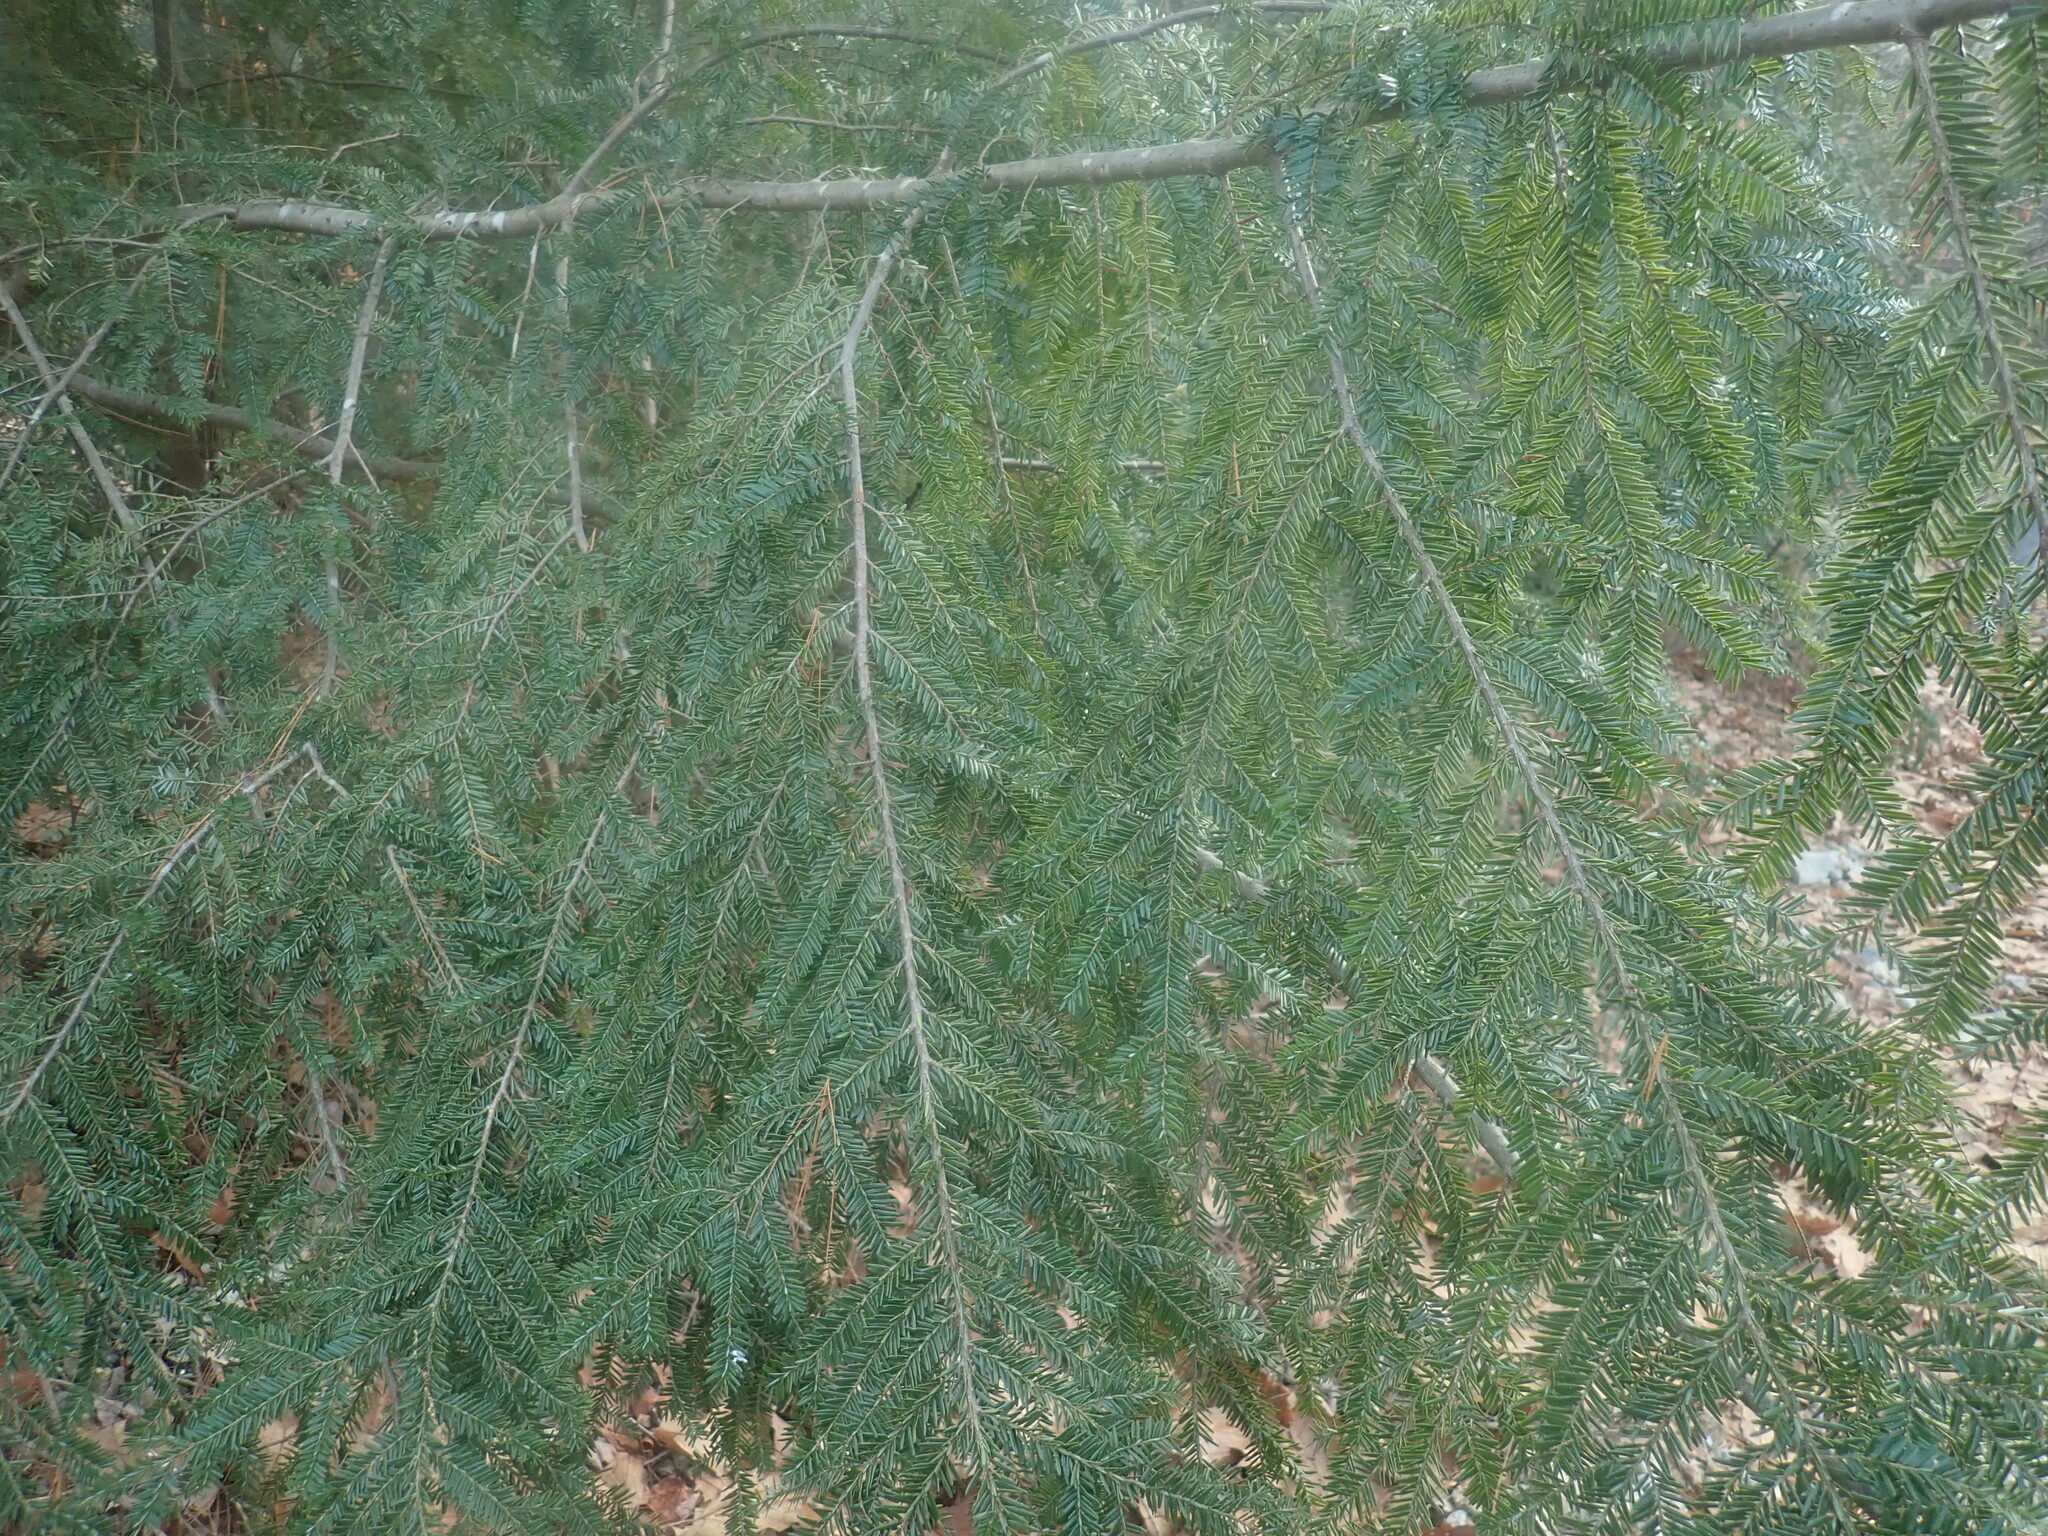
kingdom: Plantae
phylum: Tracheophyta
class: Pinopsida
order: Pinales
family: Pinaceae
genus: Tsuga
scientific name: Tsuga canadensis
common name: Eastern hemlock
